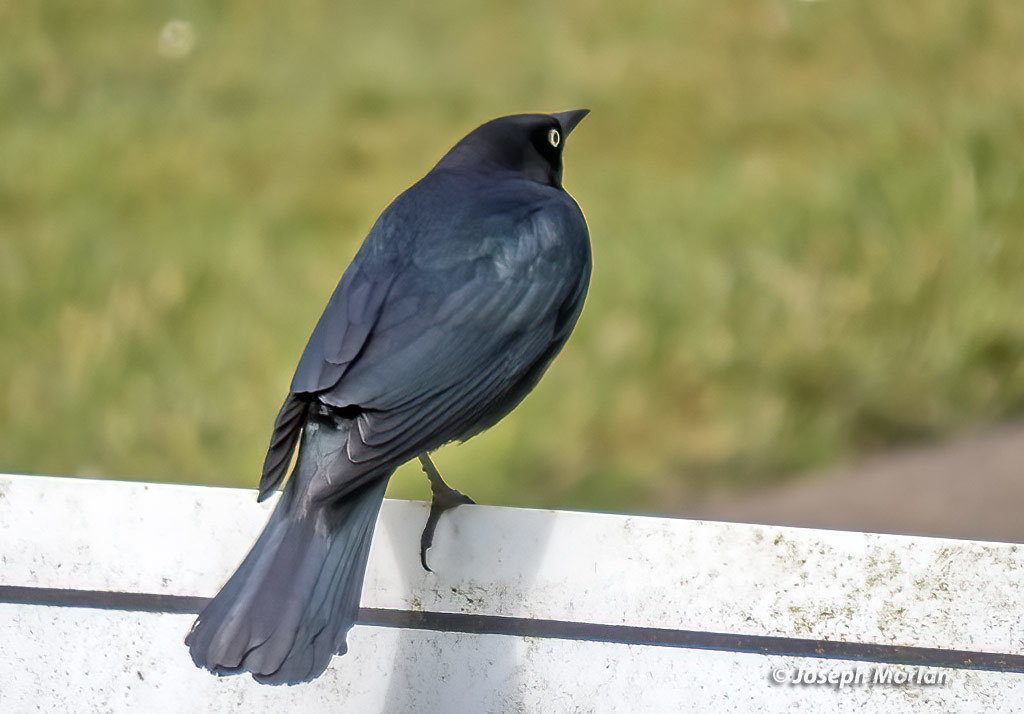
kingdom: Animalia
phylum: Chordata
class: Aves
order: Passeriformes
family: Icteridae
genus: Euphagus
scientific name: Euphagus cyanocephalus
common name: Brewer's blackbird
